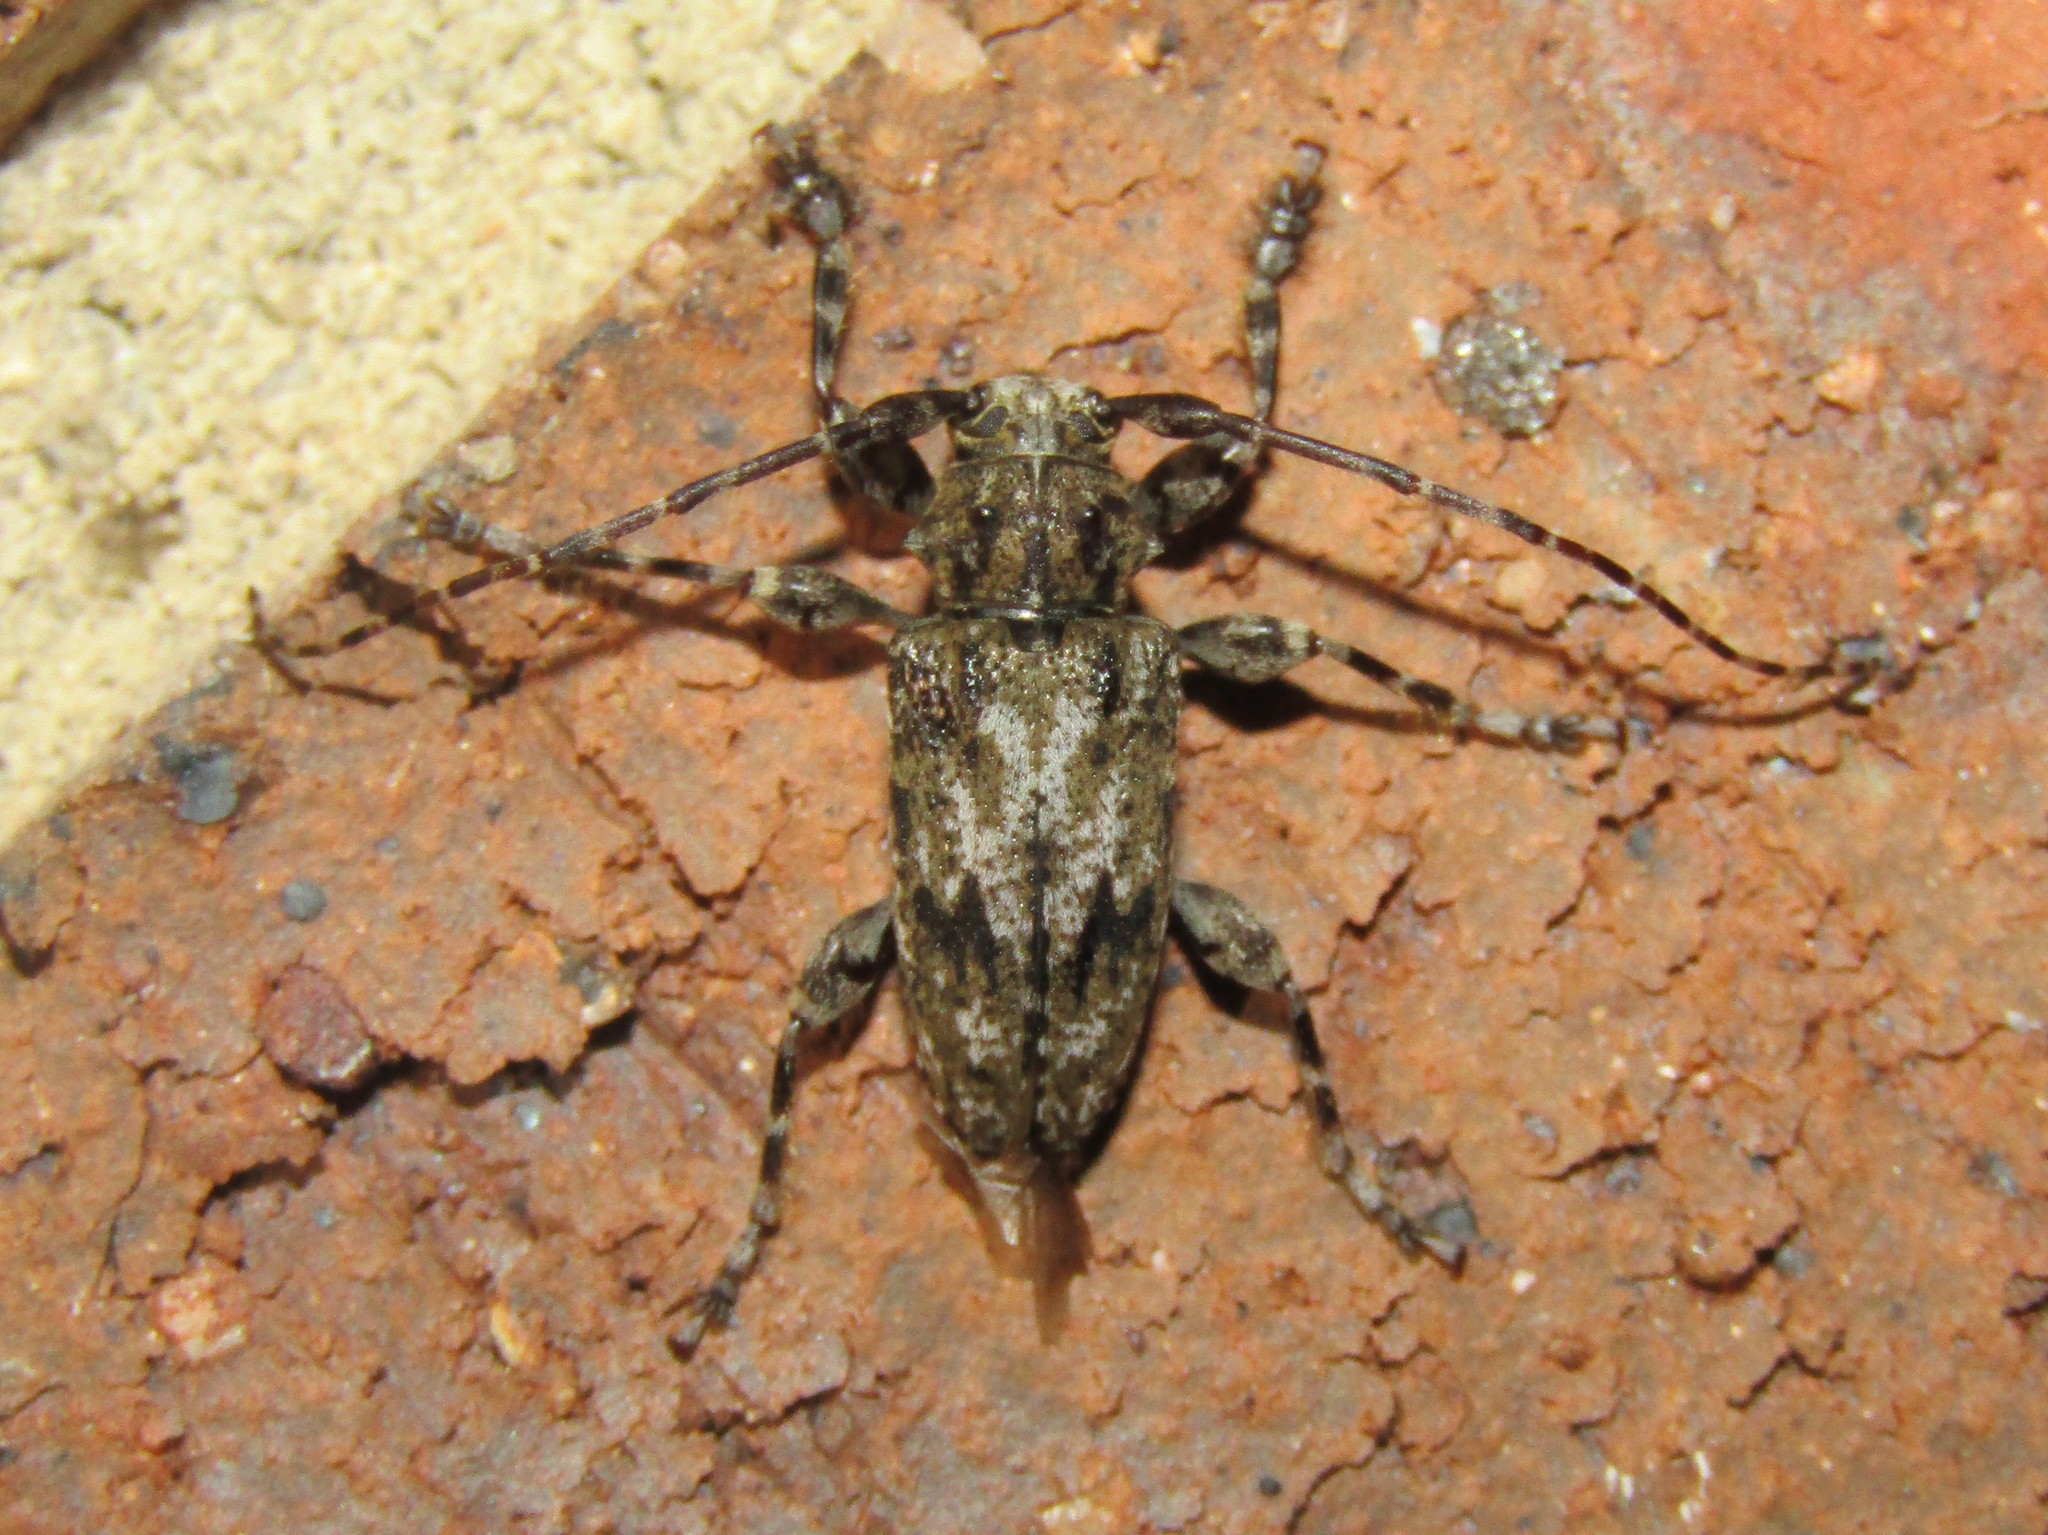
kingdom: Animalia
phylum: Arthropoda
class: Insecta
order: Coleoptera
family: Cerambycidae
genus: Aegomorphus
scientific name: Aegomorphus modestus
